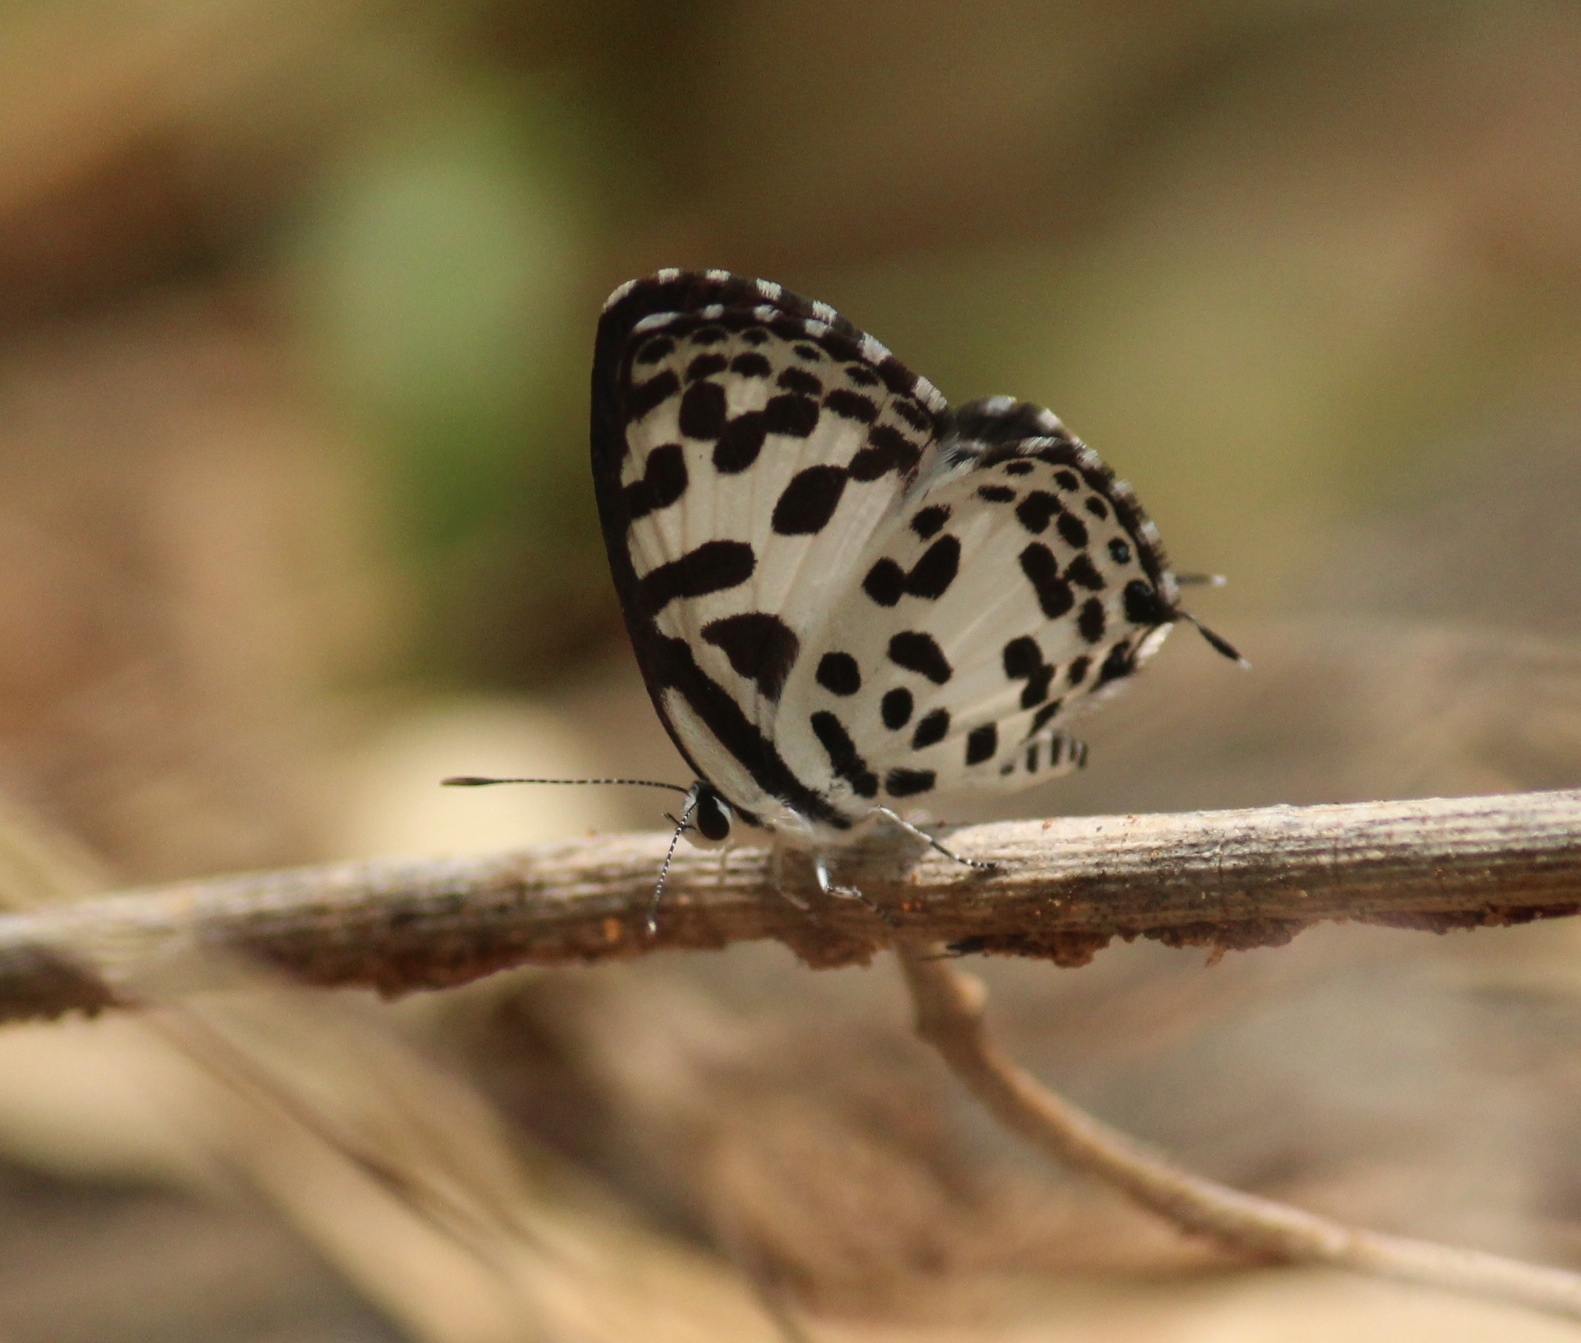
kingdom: Animalia
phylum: Arthropoda
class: Insecta
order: Lepidoptera
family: Lycaenidae
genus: Castalius
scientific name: Castalius rosimon
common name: Common pierrot
